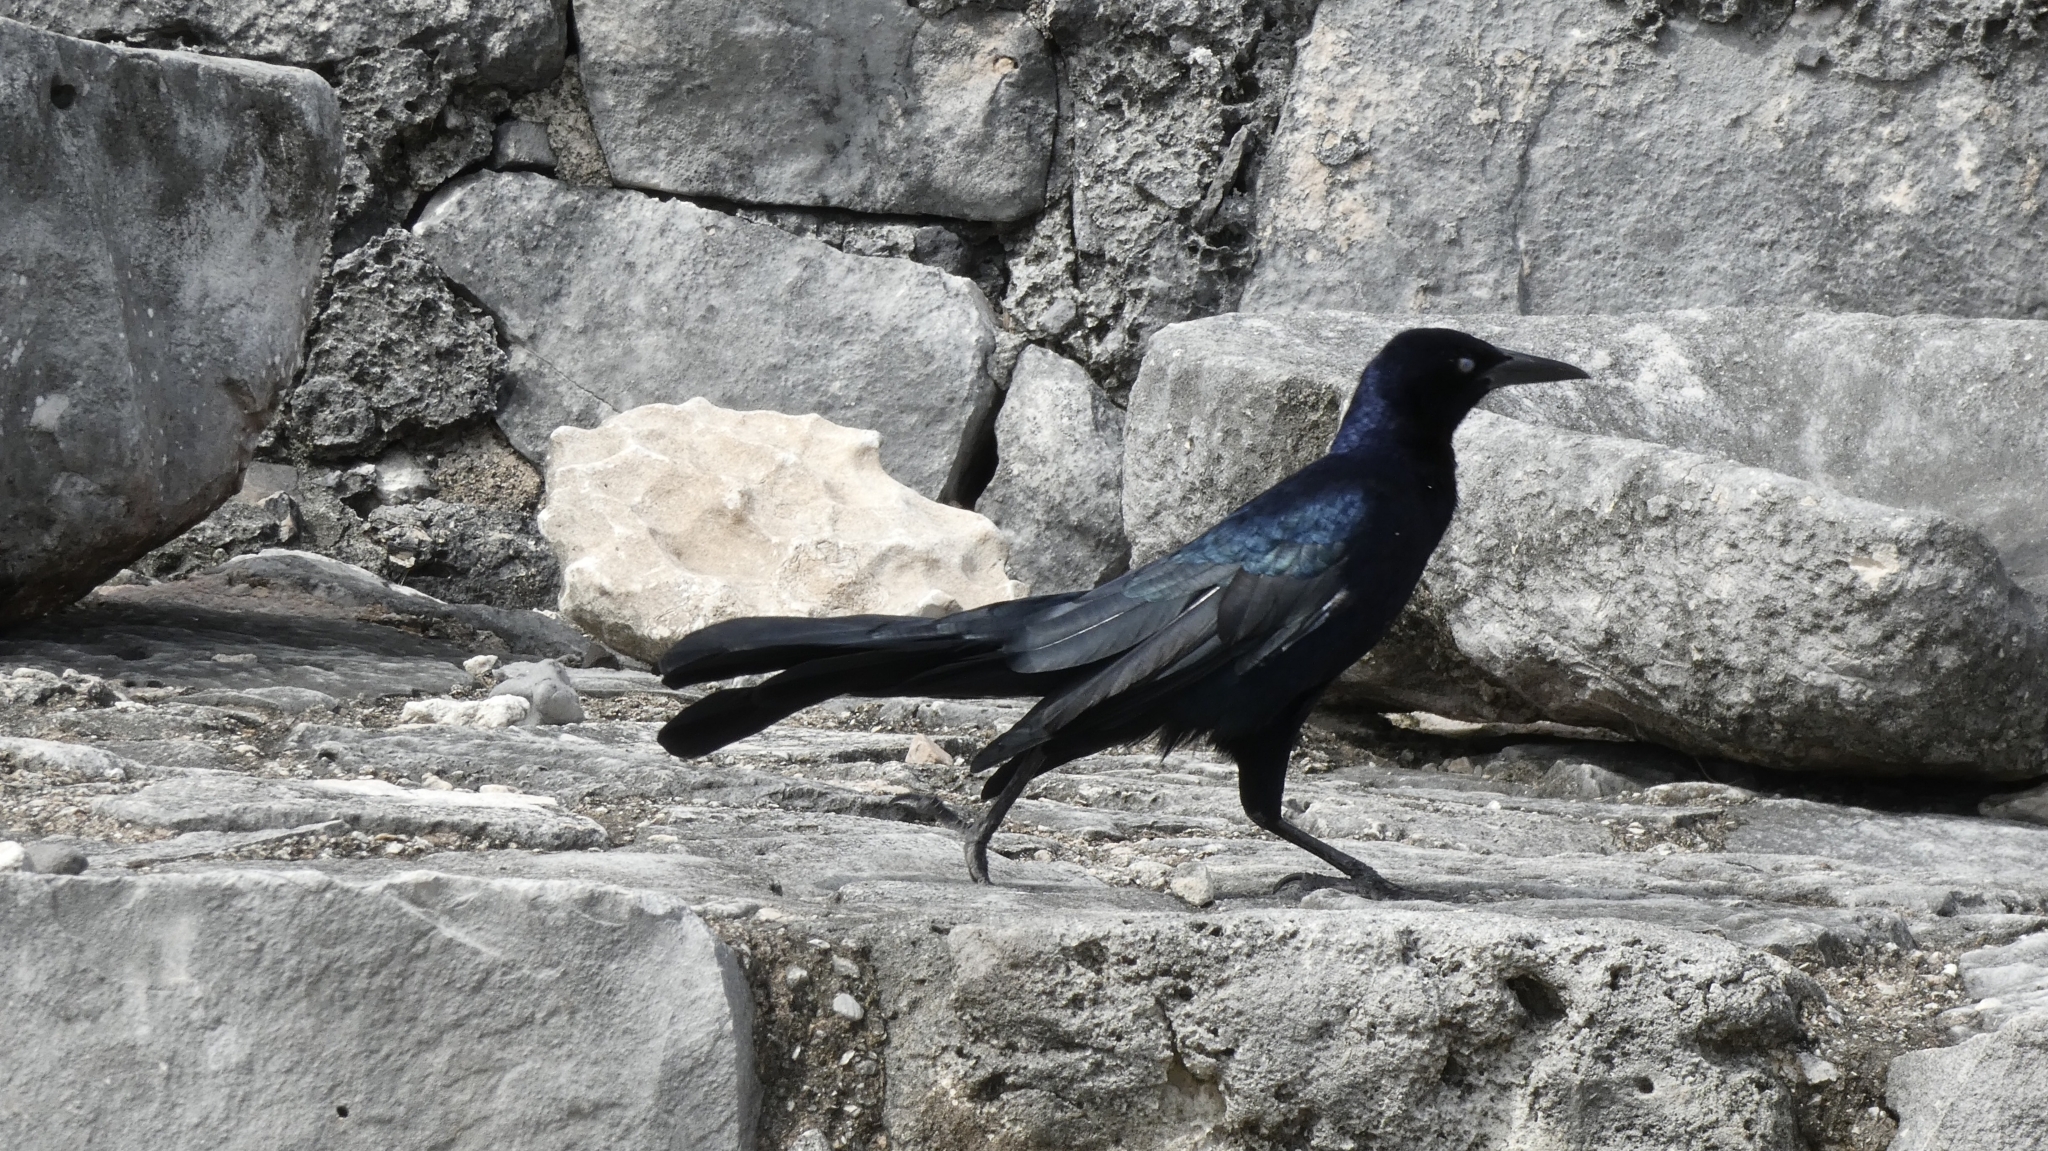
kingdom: Animalia
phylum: Chordata
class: Aves
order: Passeriformes
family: Icteridae
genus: Quiscalus
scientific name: Quiscalus mexicanus
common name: Great-tailed grackle
